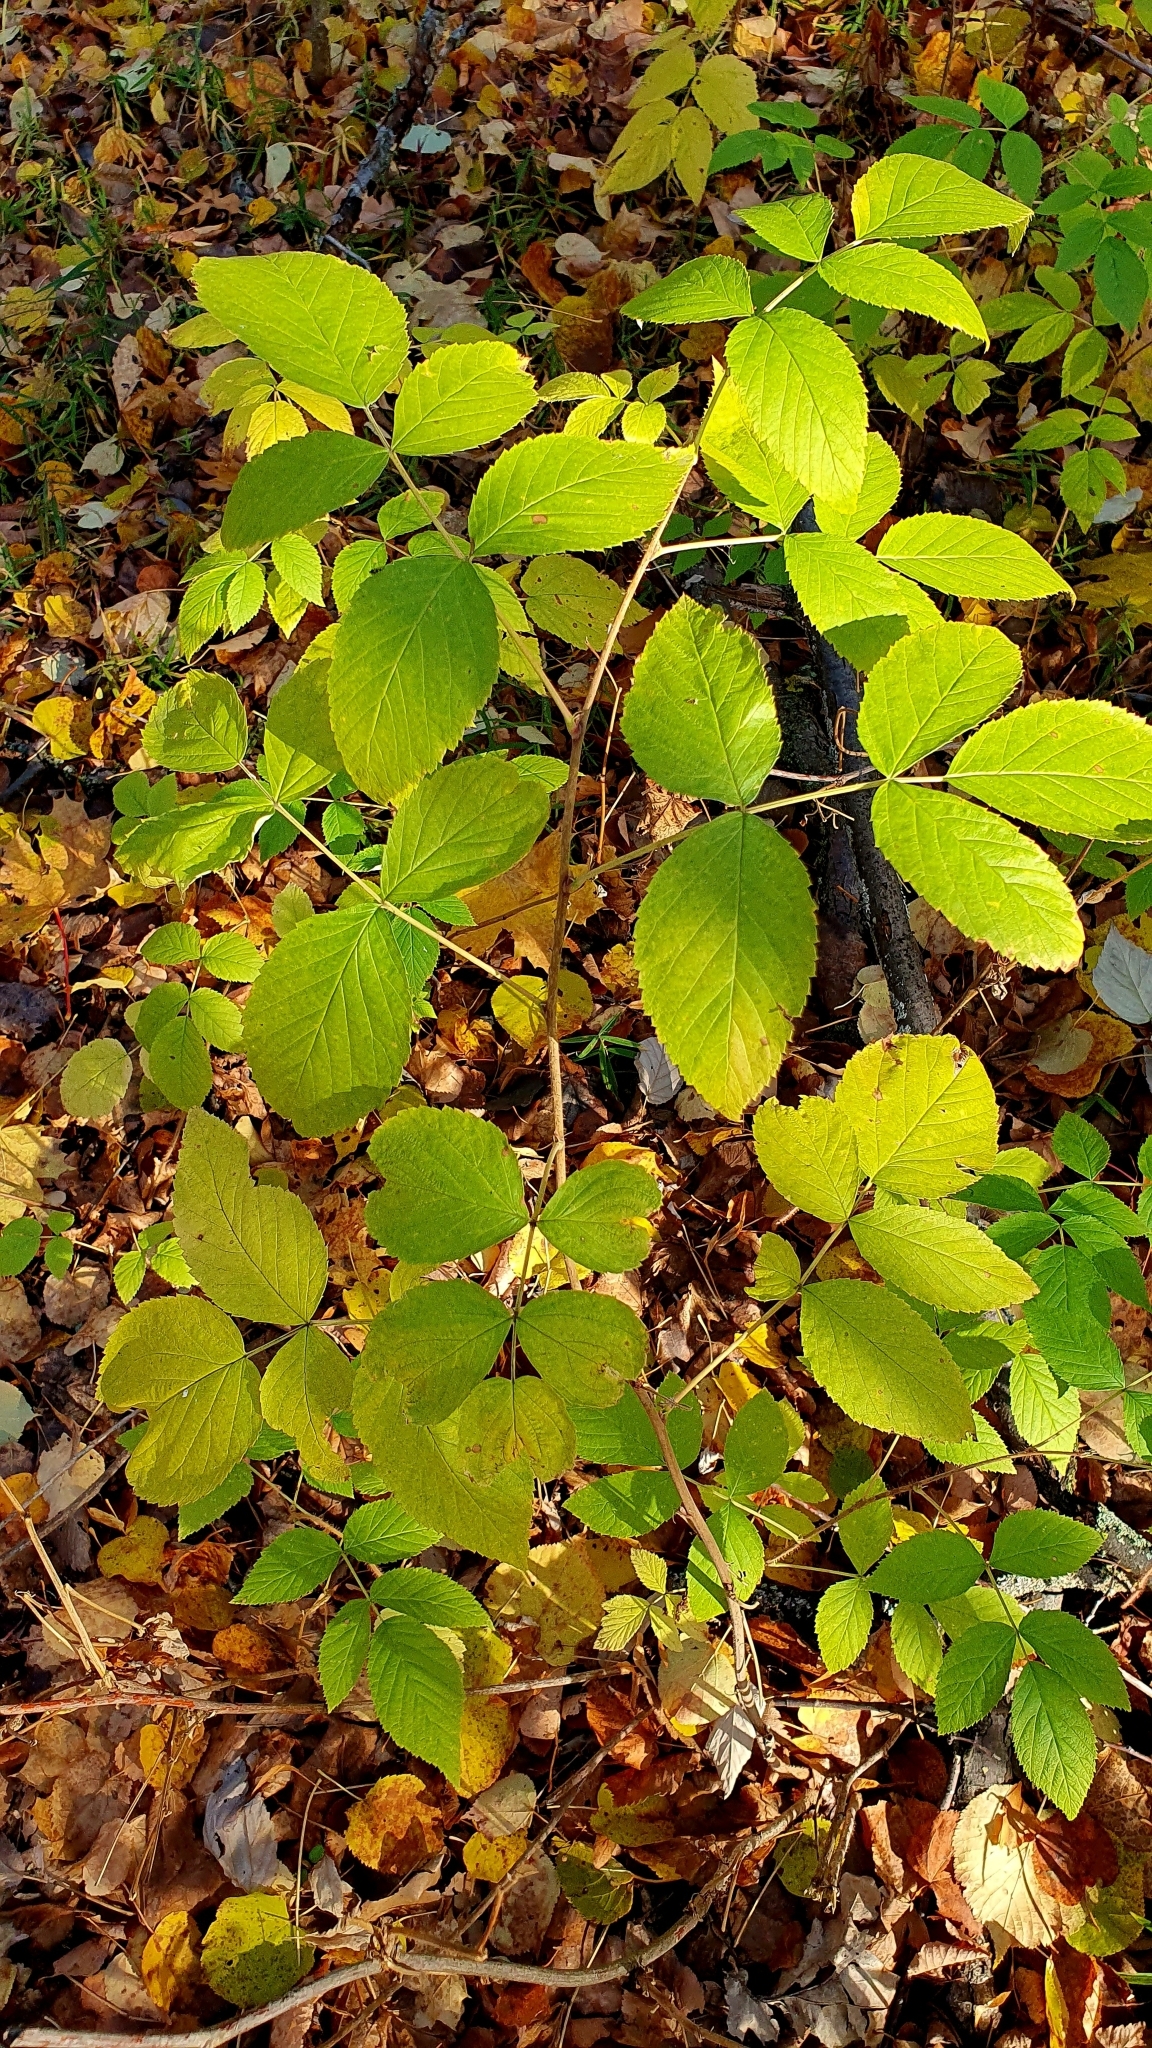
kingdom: Plantae
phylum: Tracheophyta
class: Magnoliopsida
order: Rosales
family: Rosaceae
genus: Rubus
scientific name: Rubus idaeus
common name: Raspberry
